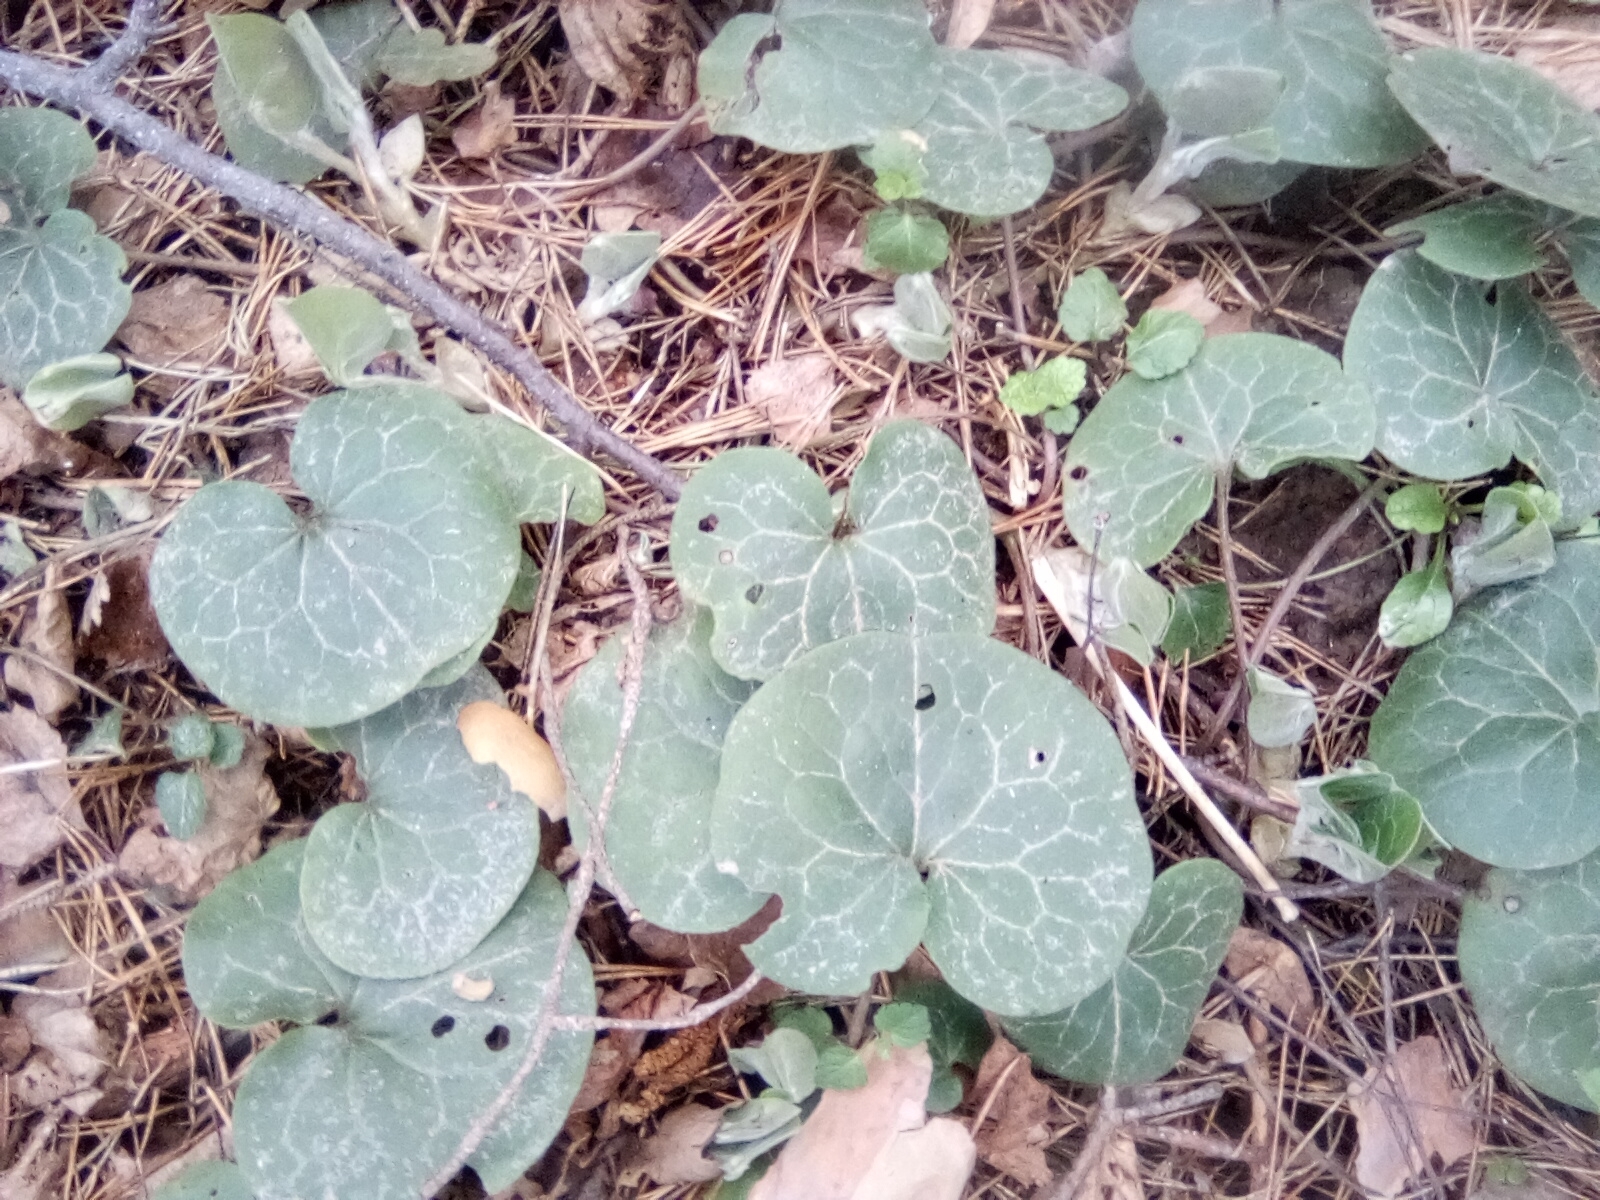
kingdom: Plantae
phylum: Tracheophyta
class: Magnoliopsida
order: Piperales
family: Aristolochiaceae
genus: Asarum
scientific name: Asarum europaeum
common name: Asarabacca
